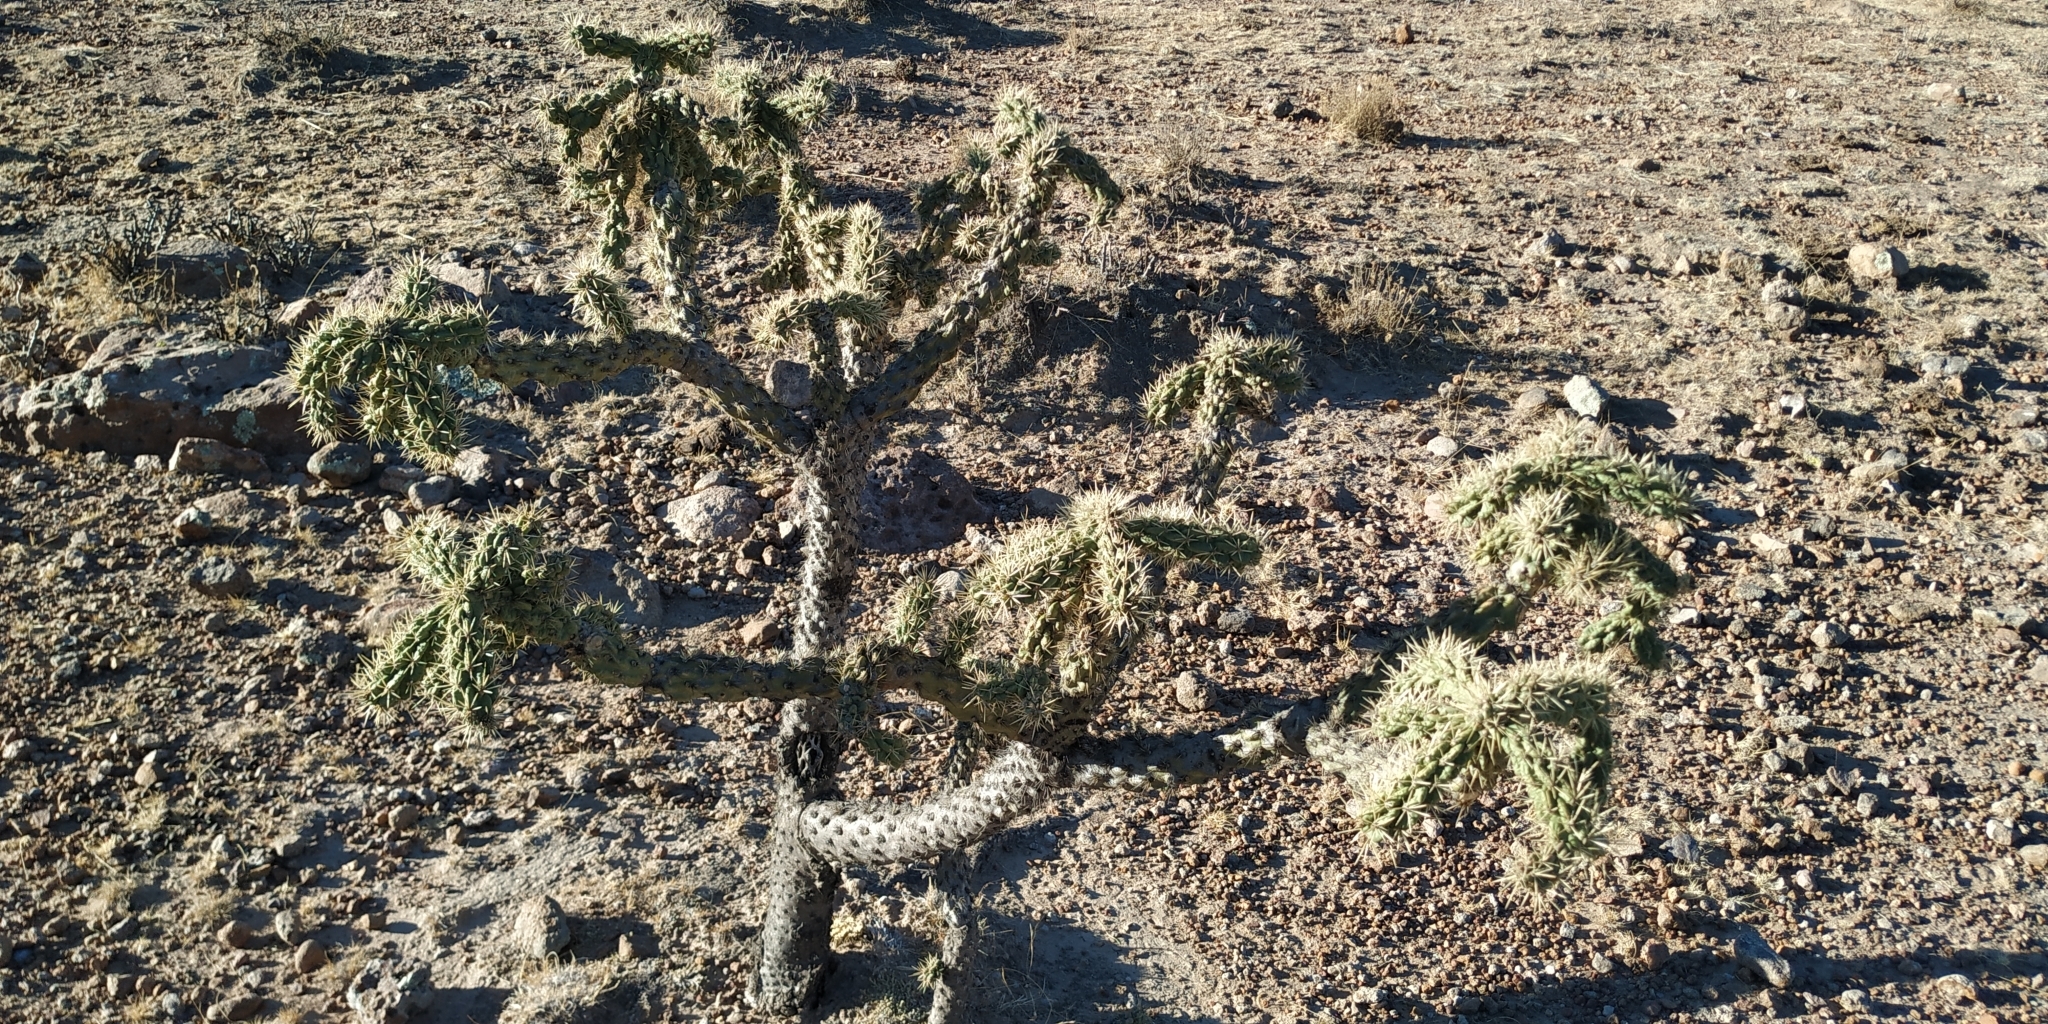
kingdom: Plantae
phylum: Tracheophyta
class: Magnoliopsida
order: Caryophyllales
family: Cactaceae
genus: Cylindropuntia
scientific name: Cylindropuntia imbricata
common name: Candelabrum cactus
